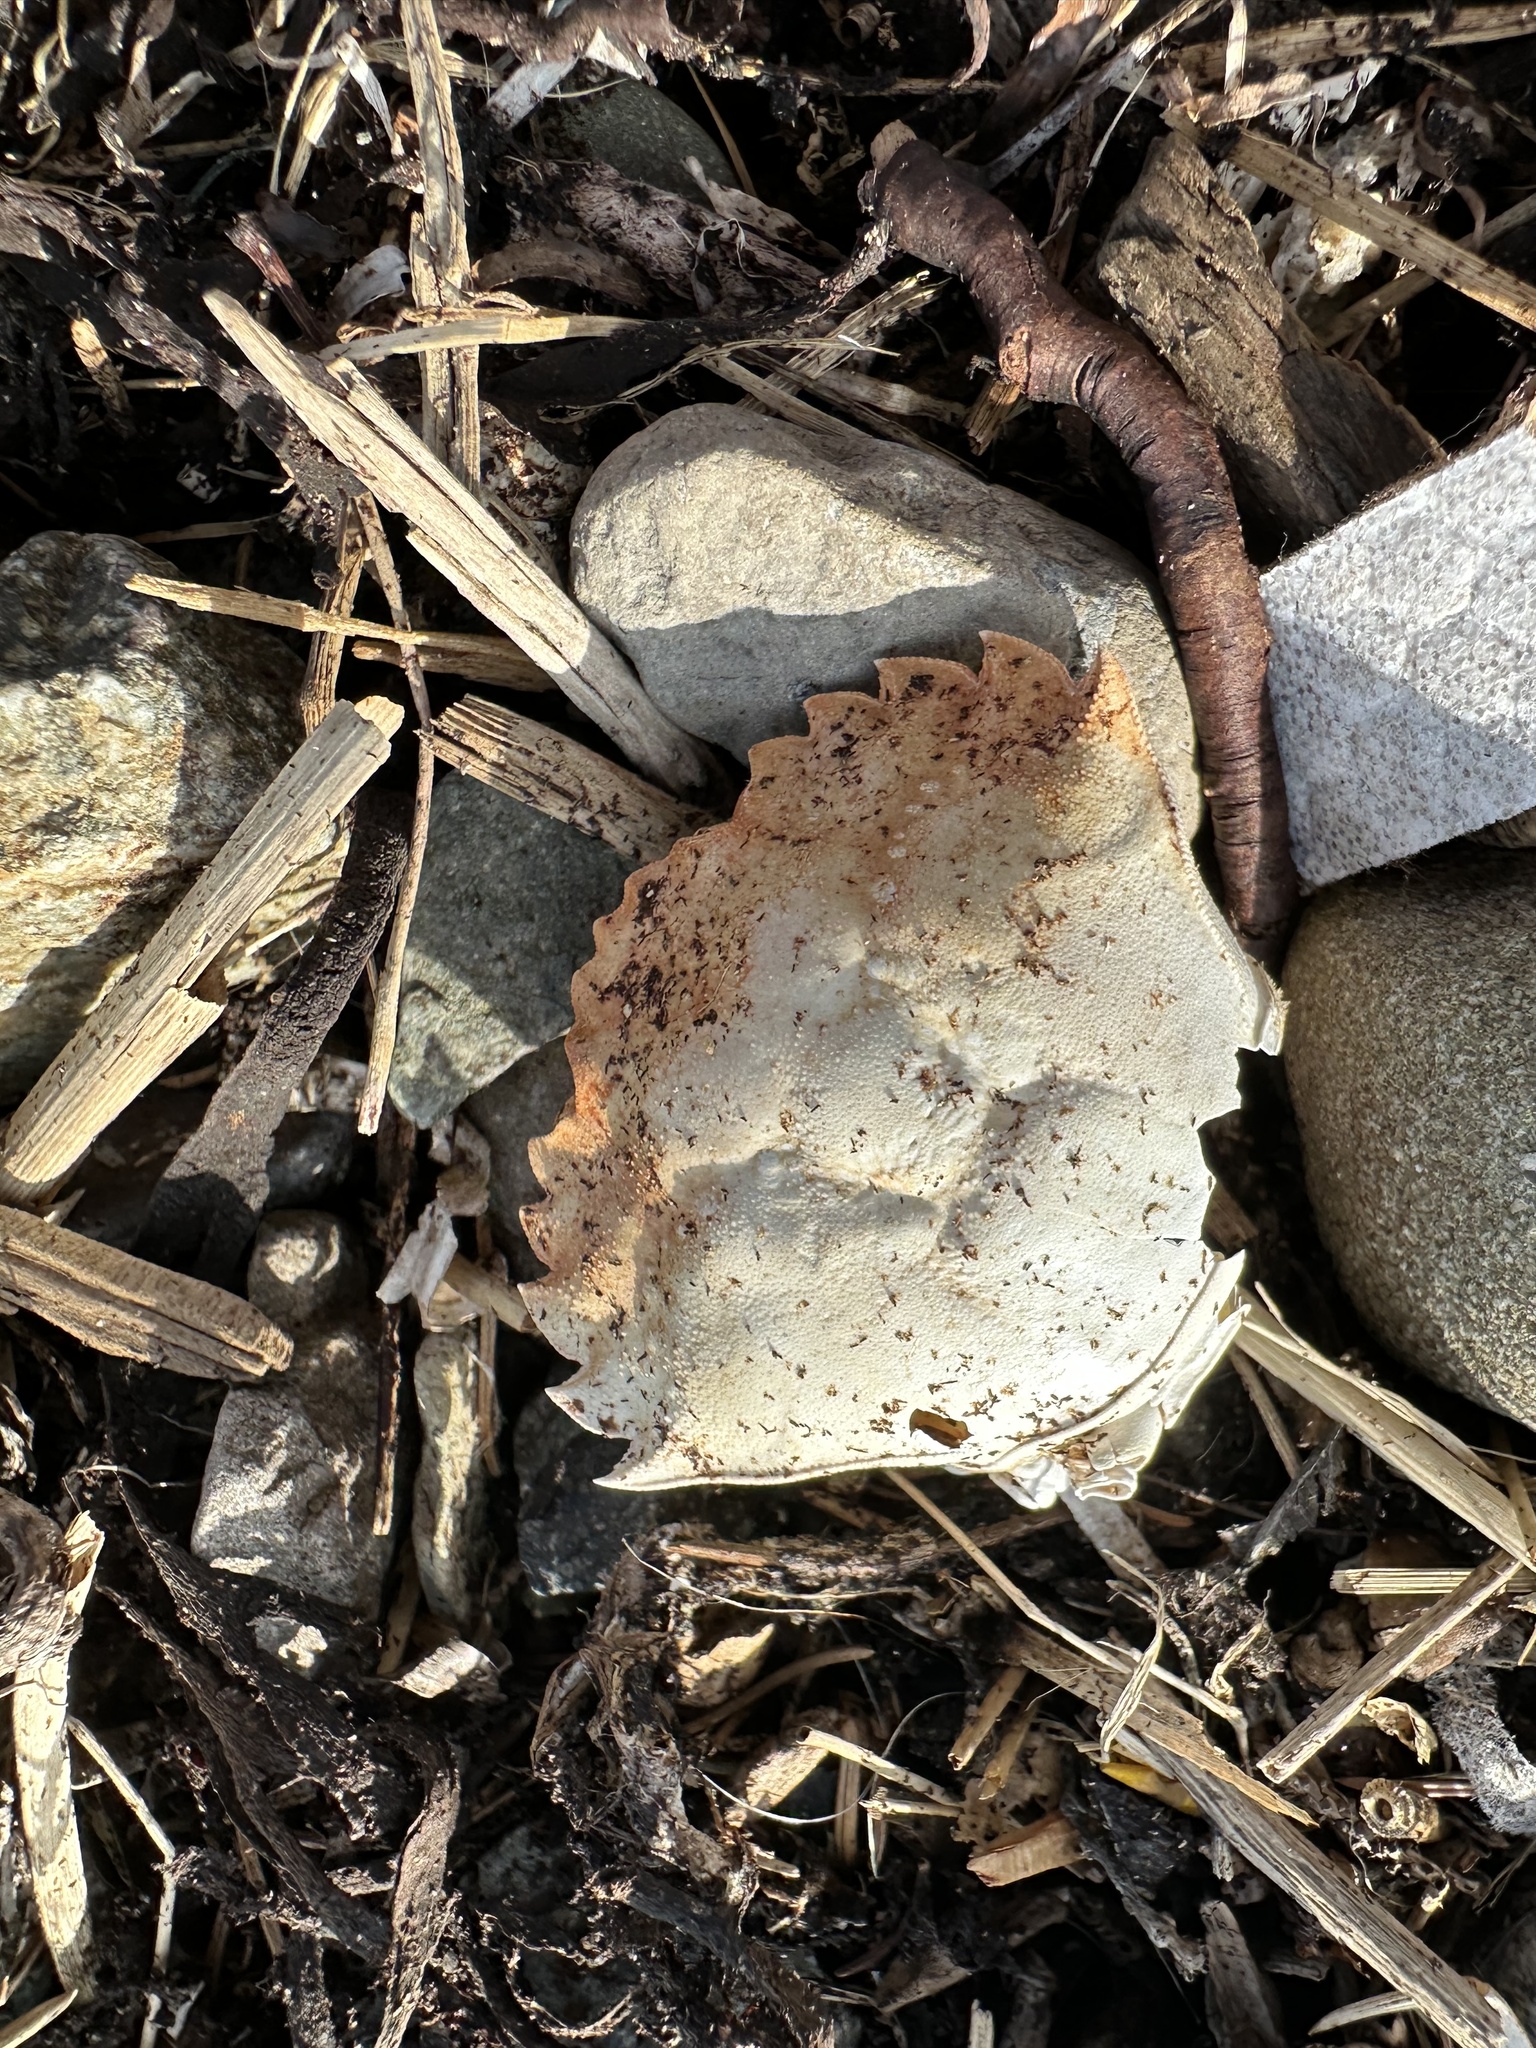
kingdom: Animalia
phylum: Arthropoda
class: Malacostraca
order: Decapoda
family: Carcinidae
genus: Carcinus
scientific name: Carcinus maenas
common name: European green crab
